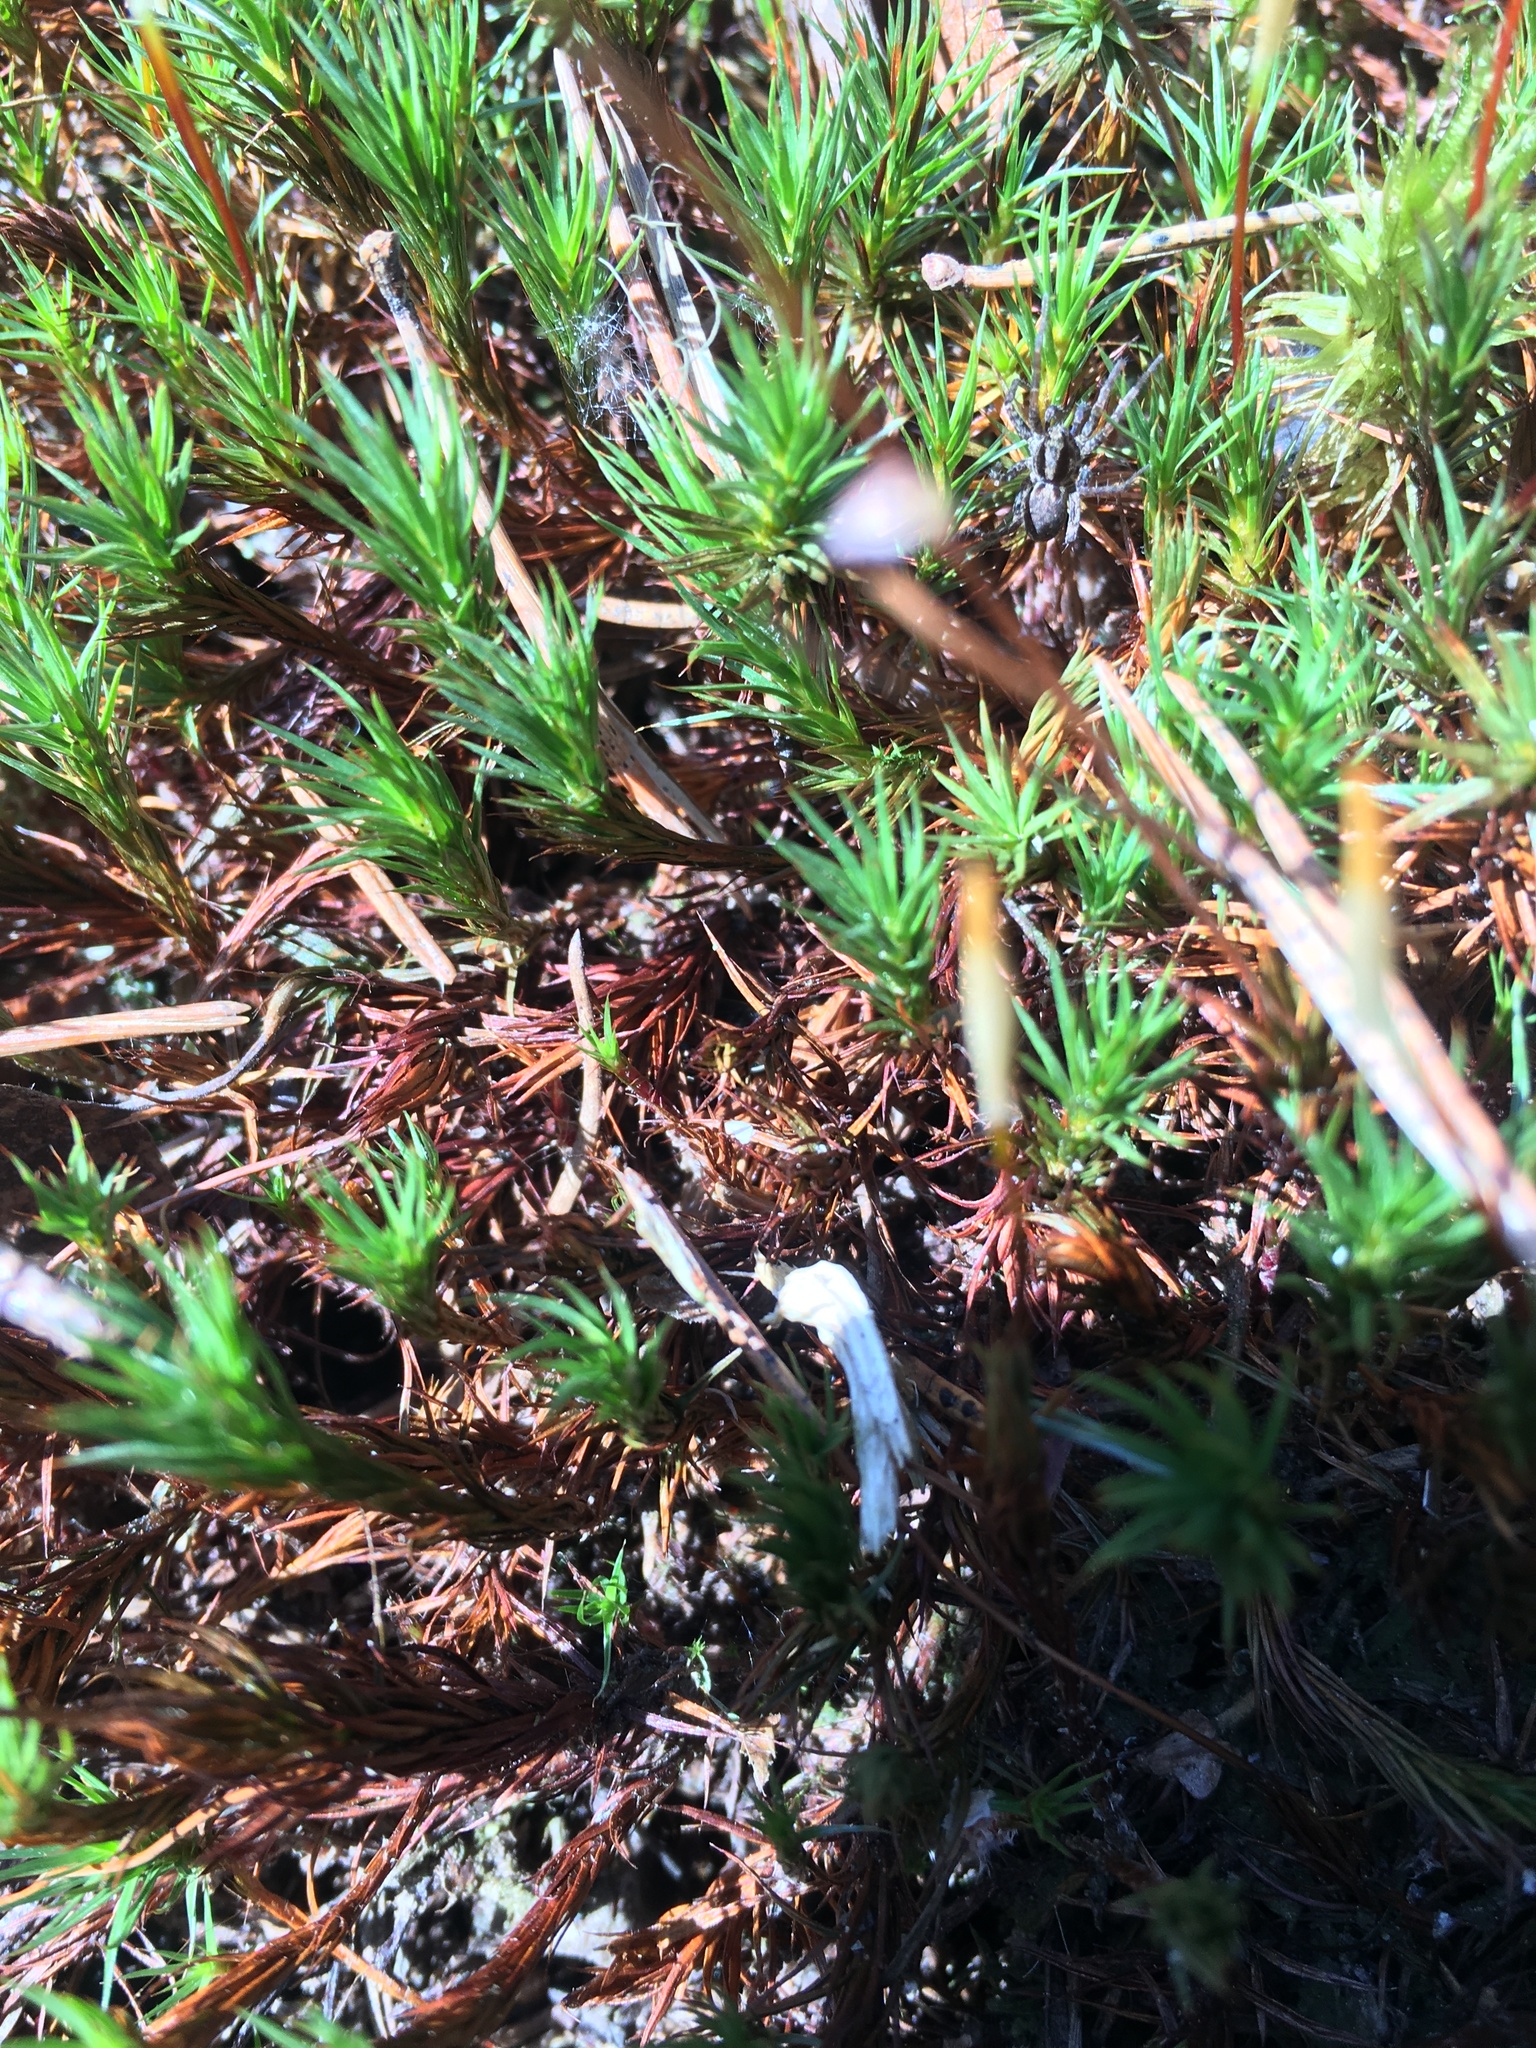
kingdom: Plantae
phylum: Bryophyta
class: Polytrichopsida
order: Polytrichales
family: Polytrichaceae
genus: Polytrichum
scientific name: Polytrichum formosum
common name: Bank haircap moss
